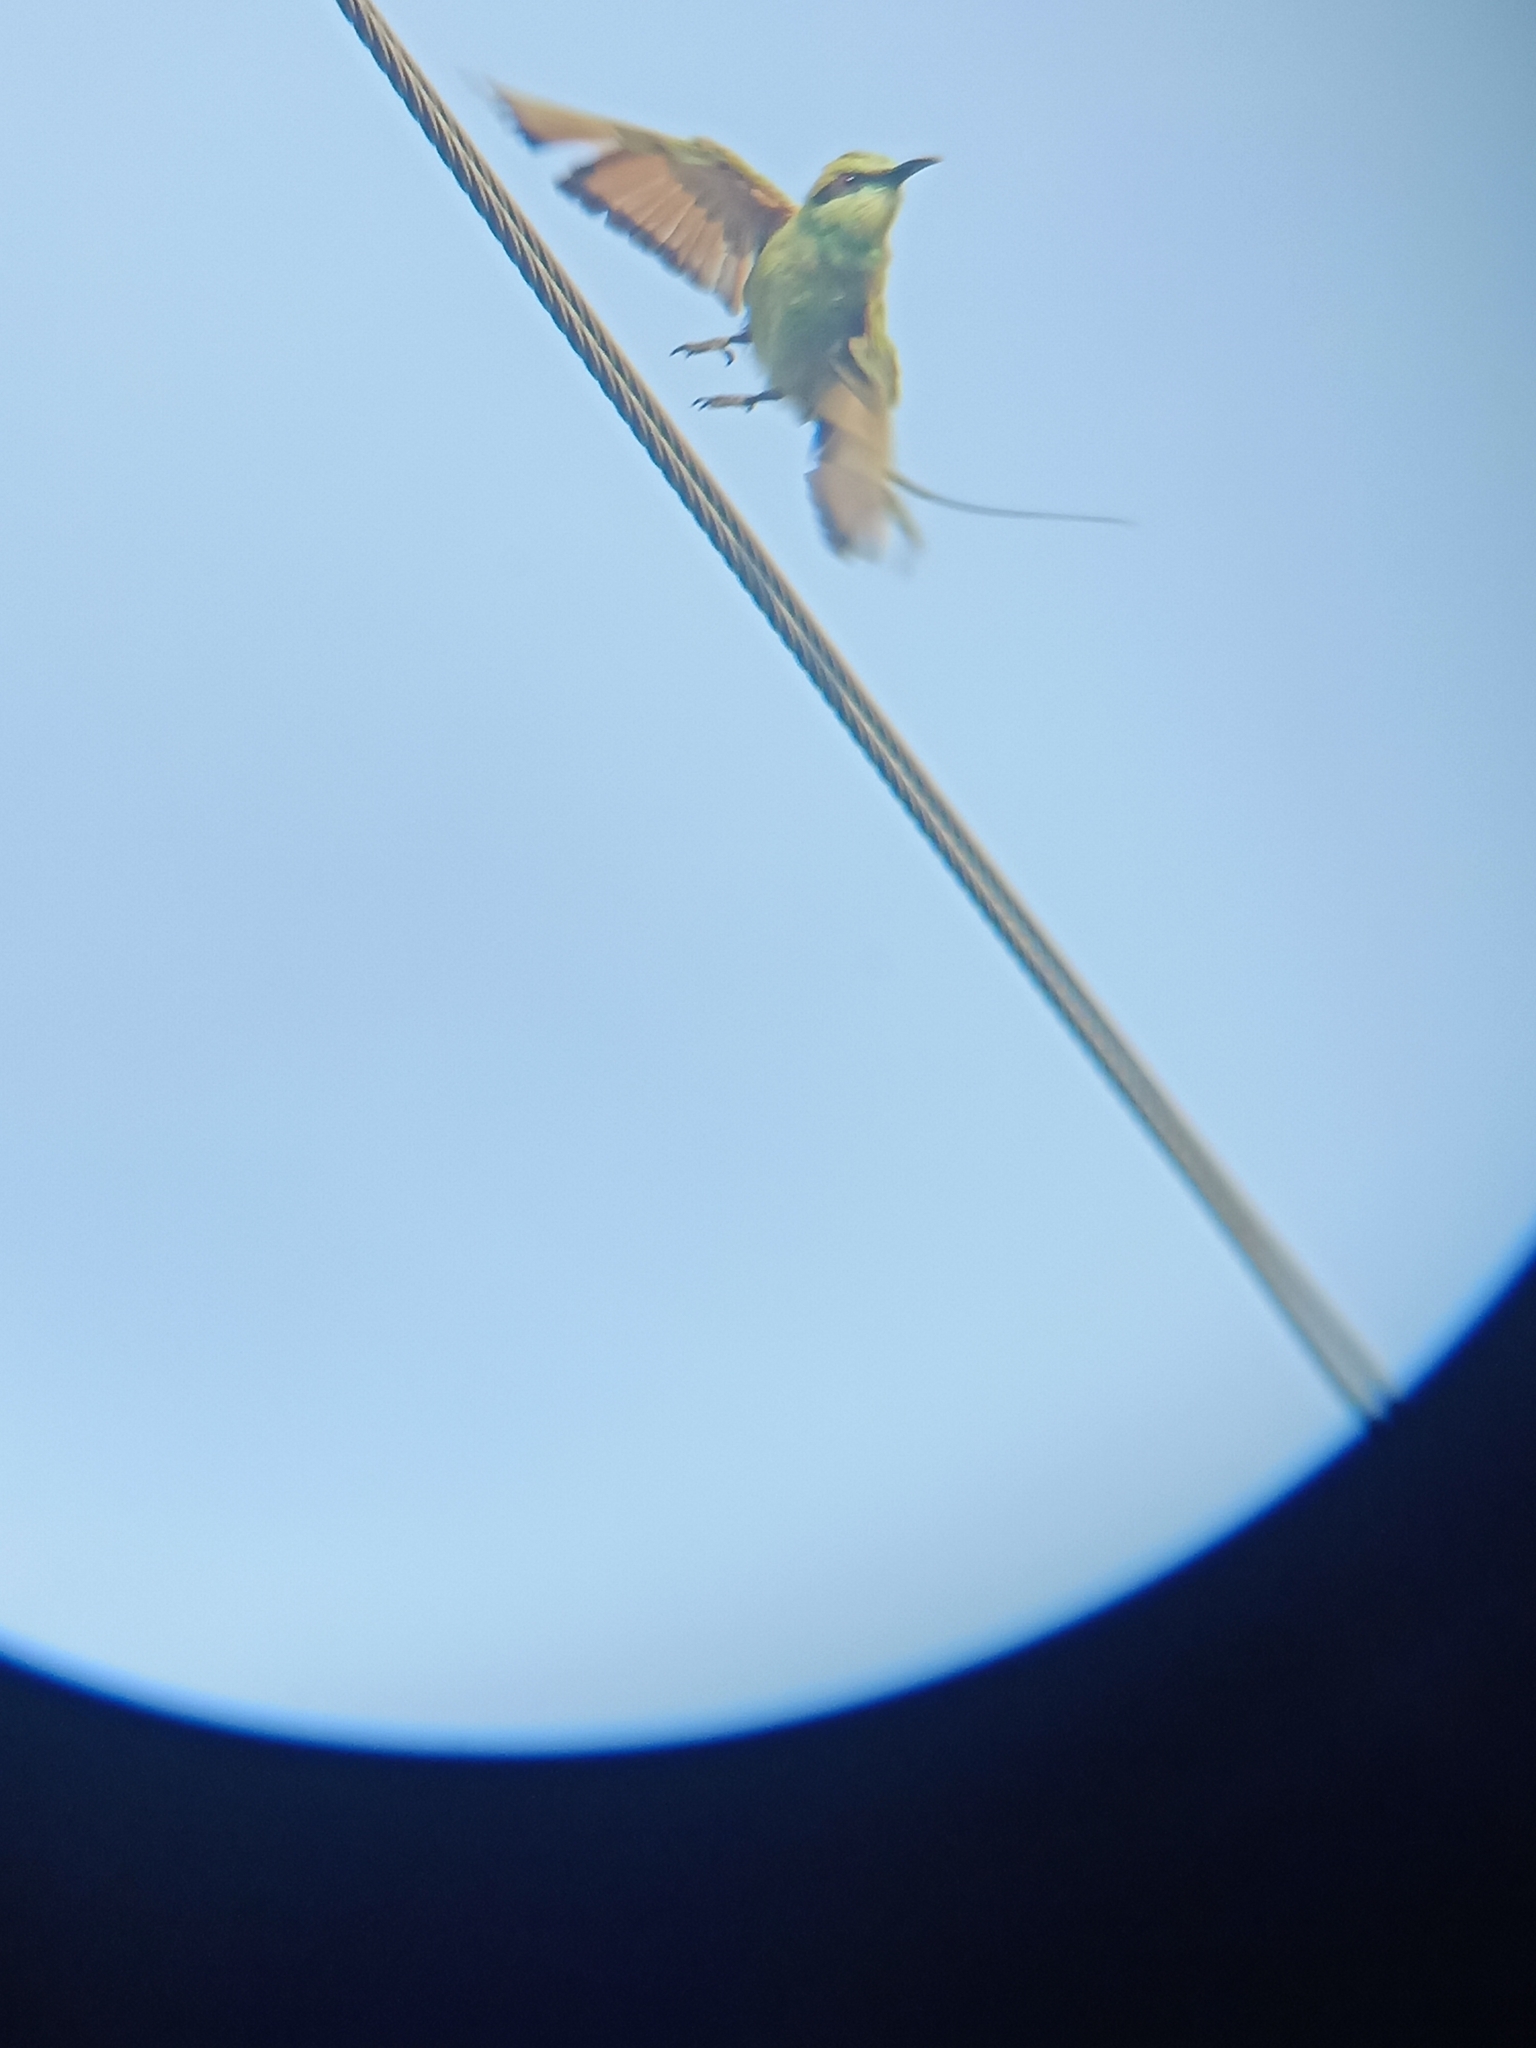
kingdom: Animalia
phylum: Chordata
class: Aves
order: Coraciiformes
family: Meropidae
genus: Merops
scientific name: Merops orientalis
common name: Green bee-eater
